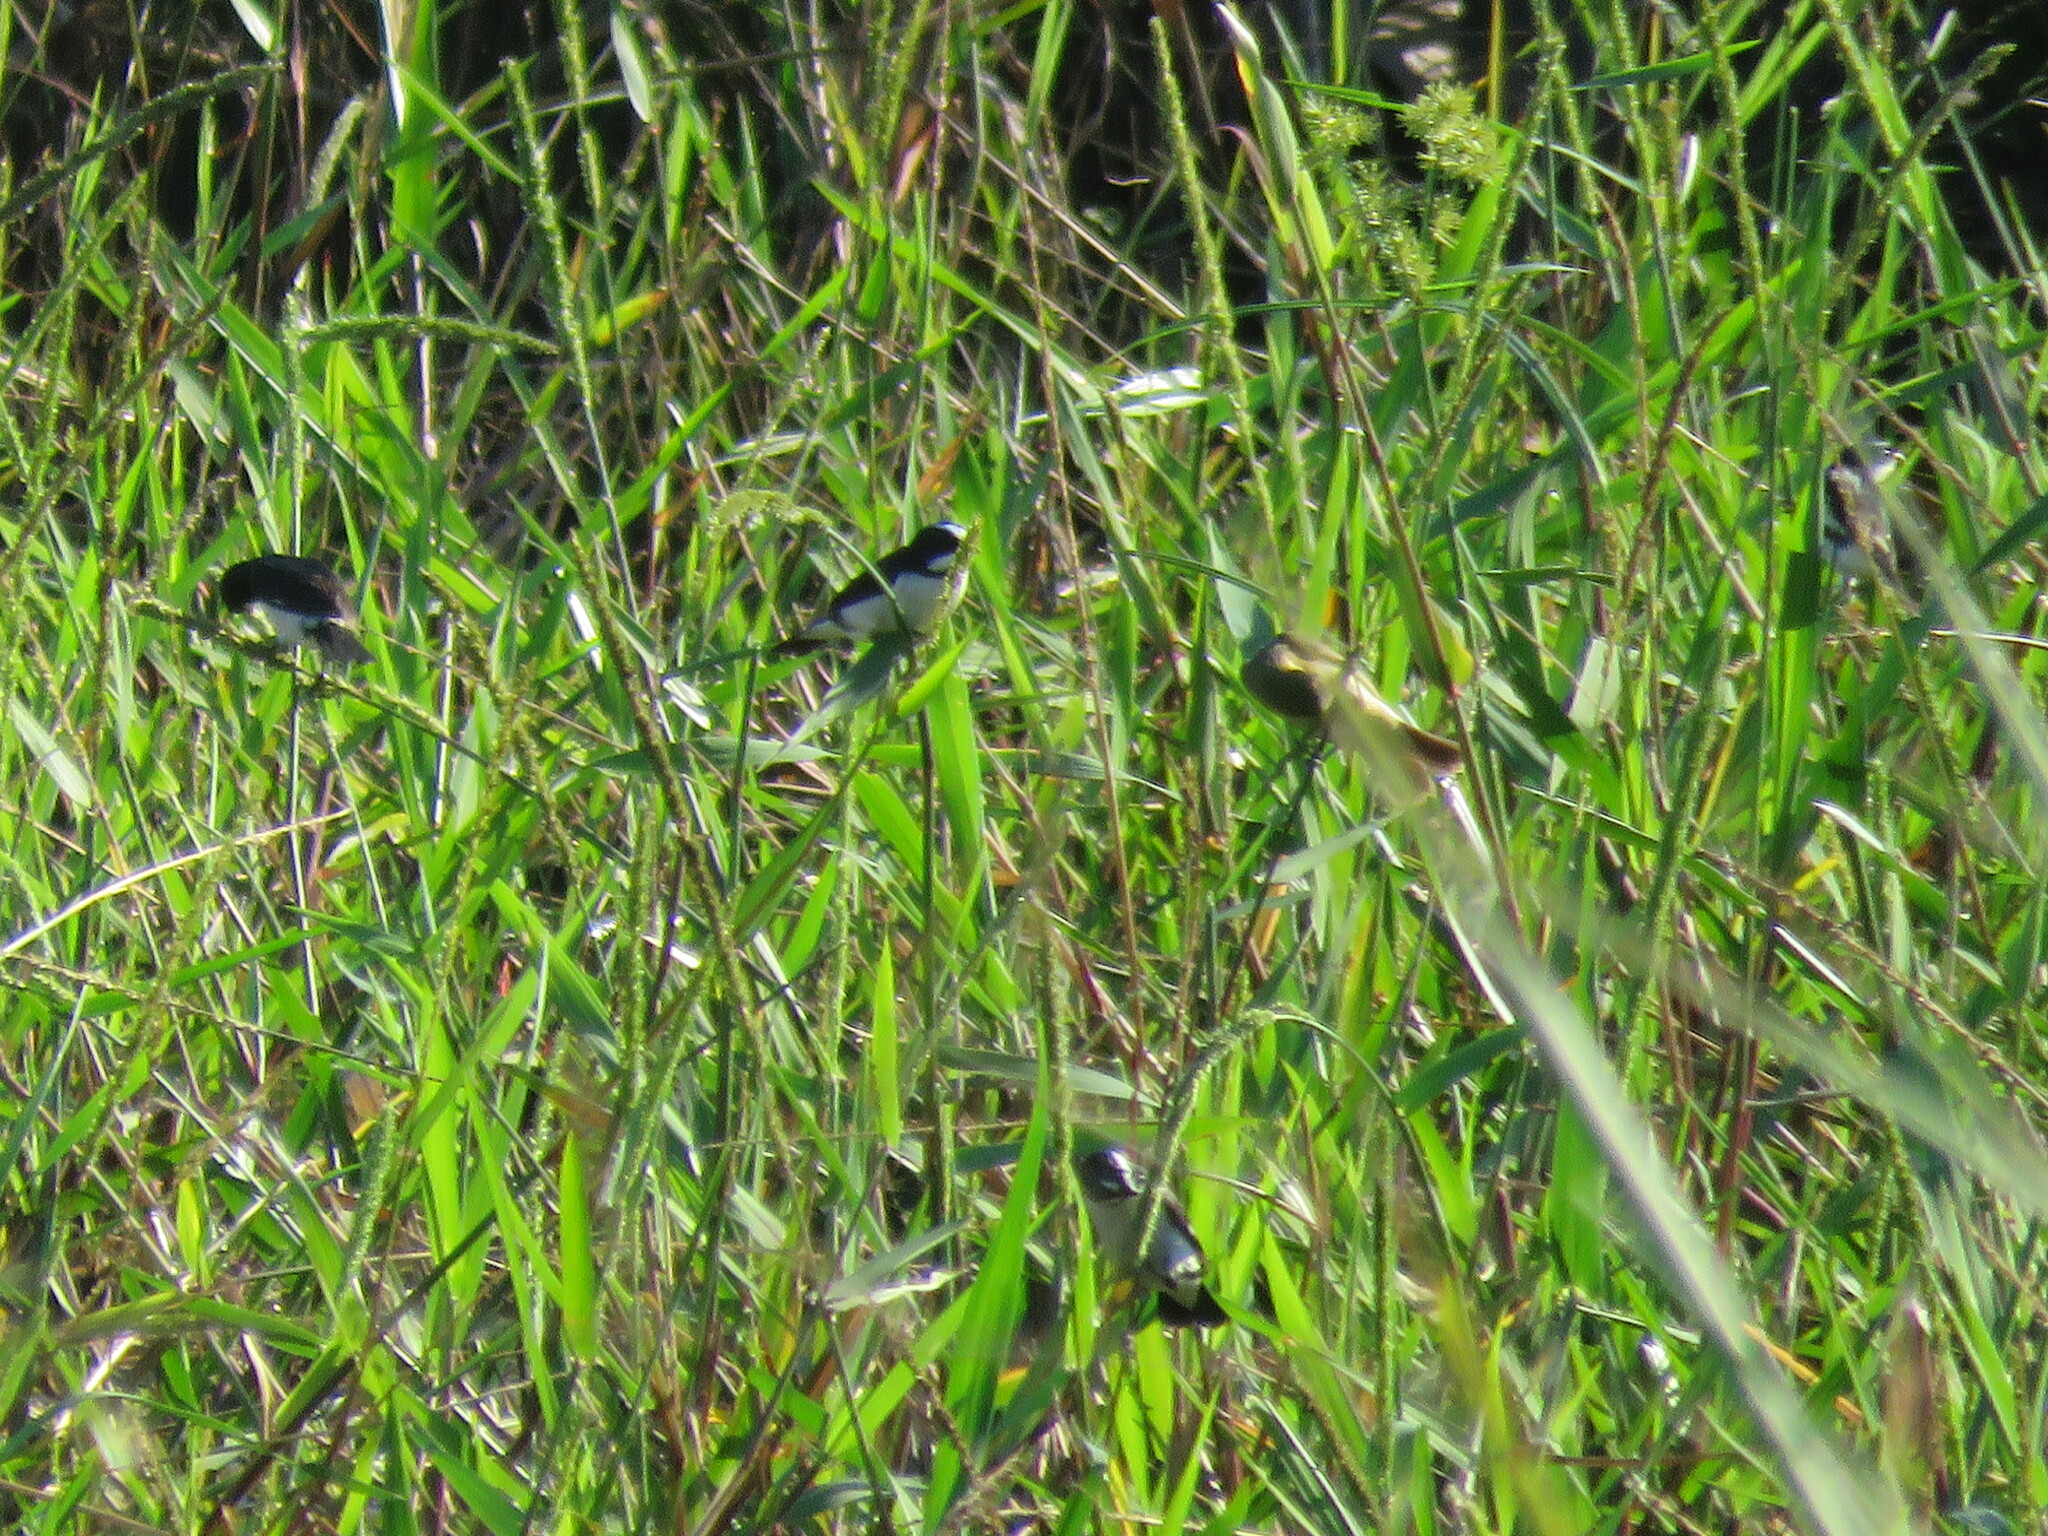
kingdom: Animalia
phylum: Chordata
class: Aves
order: Passeriformes
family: Thraupidae
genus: Sporophila
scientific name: Sporophila lineola
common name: Lined seedeater
